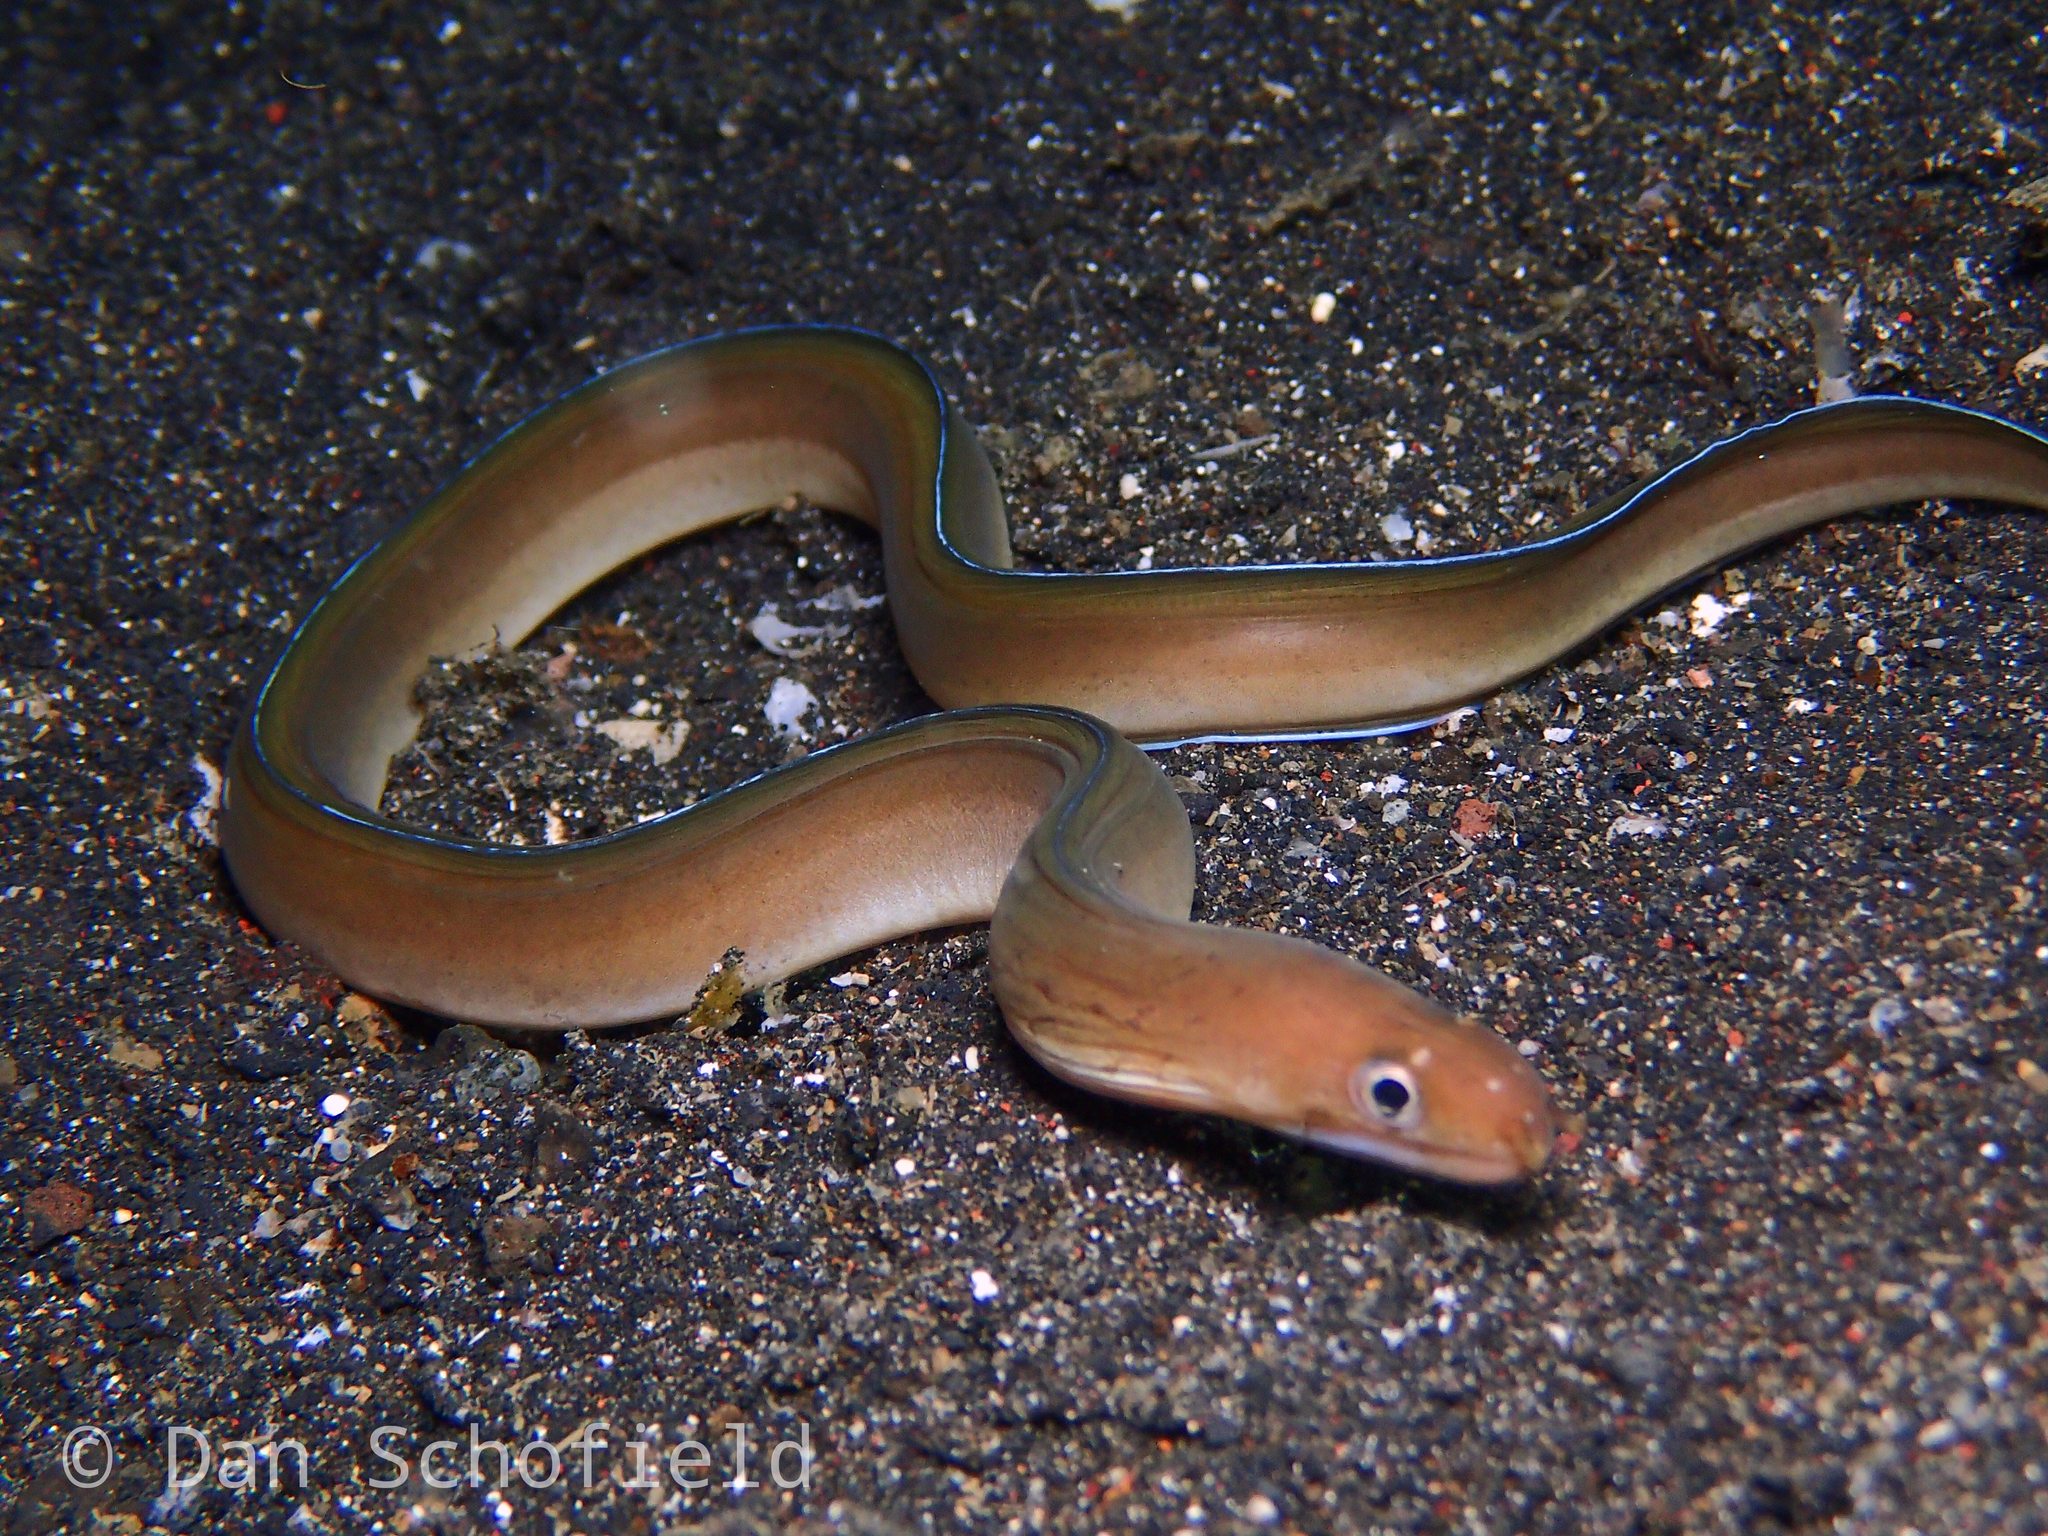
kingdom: Animalia
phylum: Chordata
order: Anguilliformes
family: Muraenidae
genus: Gymnothorax
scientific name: Gymnothorax albimarginatus
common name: Whitemargin moray
